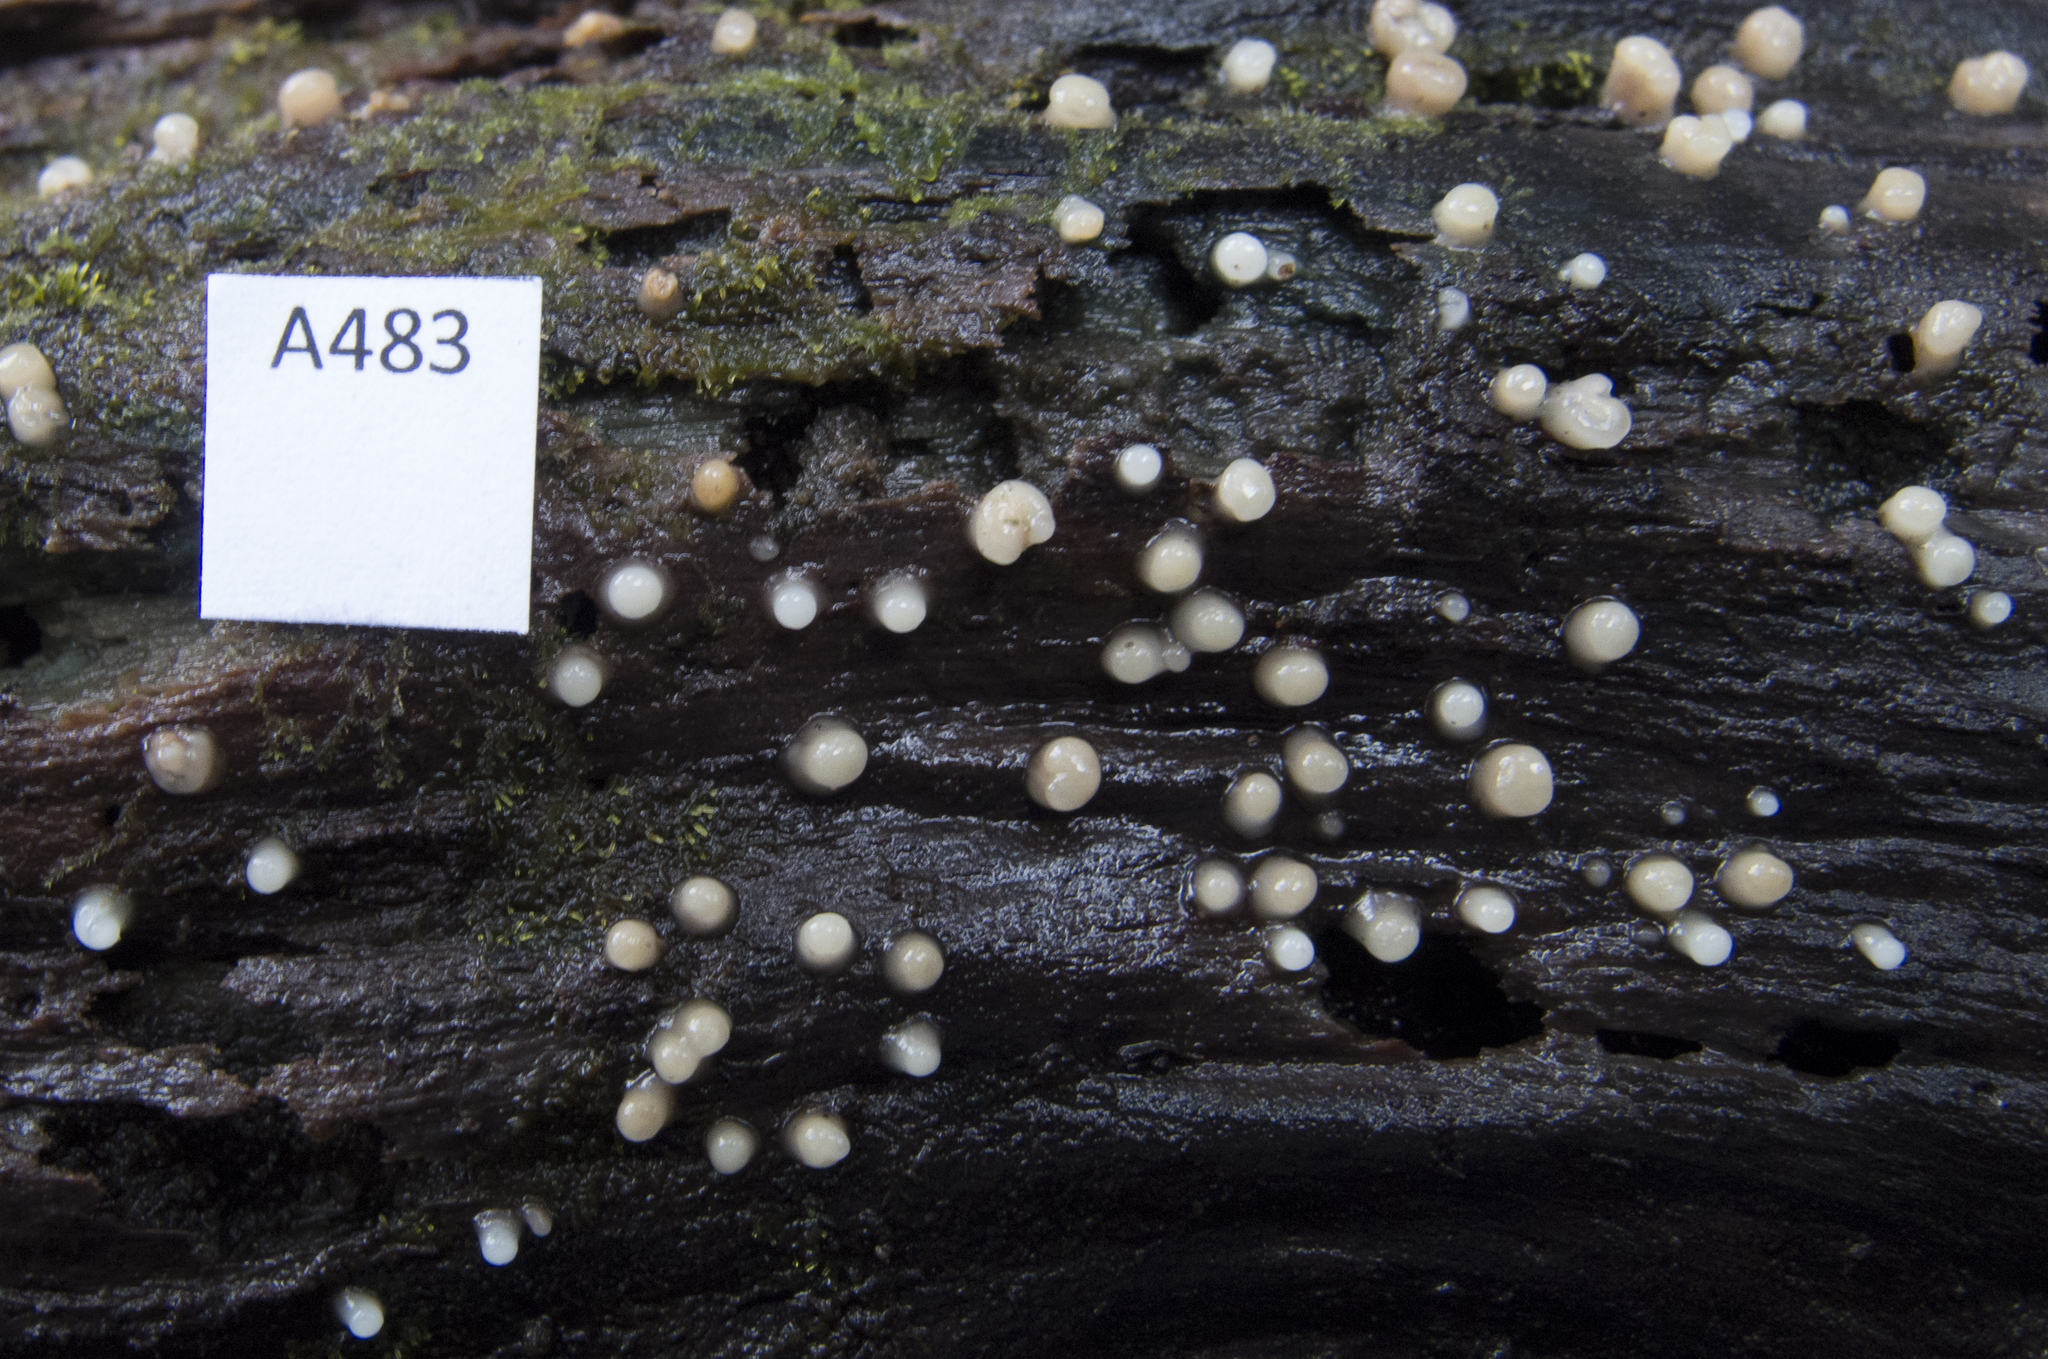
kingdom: Fungi
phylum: Basidiomycota
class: Atractiellomycetes
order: Atractiellales
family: Phleogenaceae
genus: Helicogloea
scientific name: Helicogloea compressa
